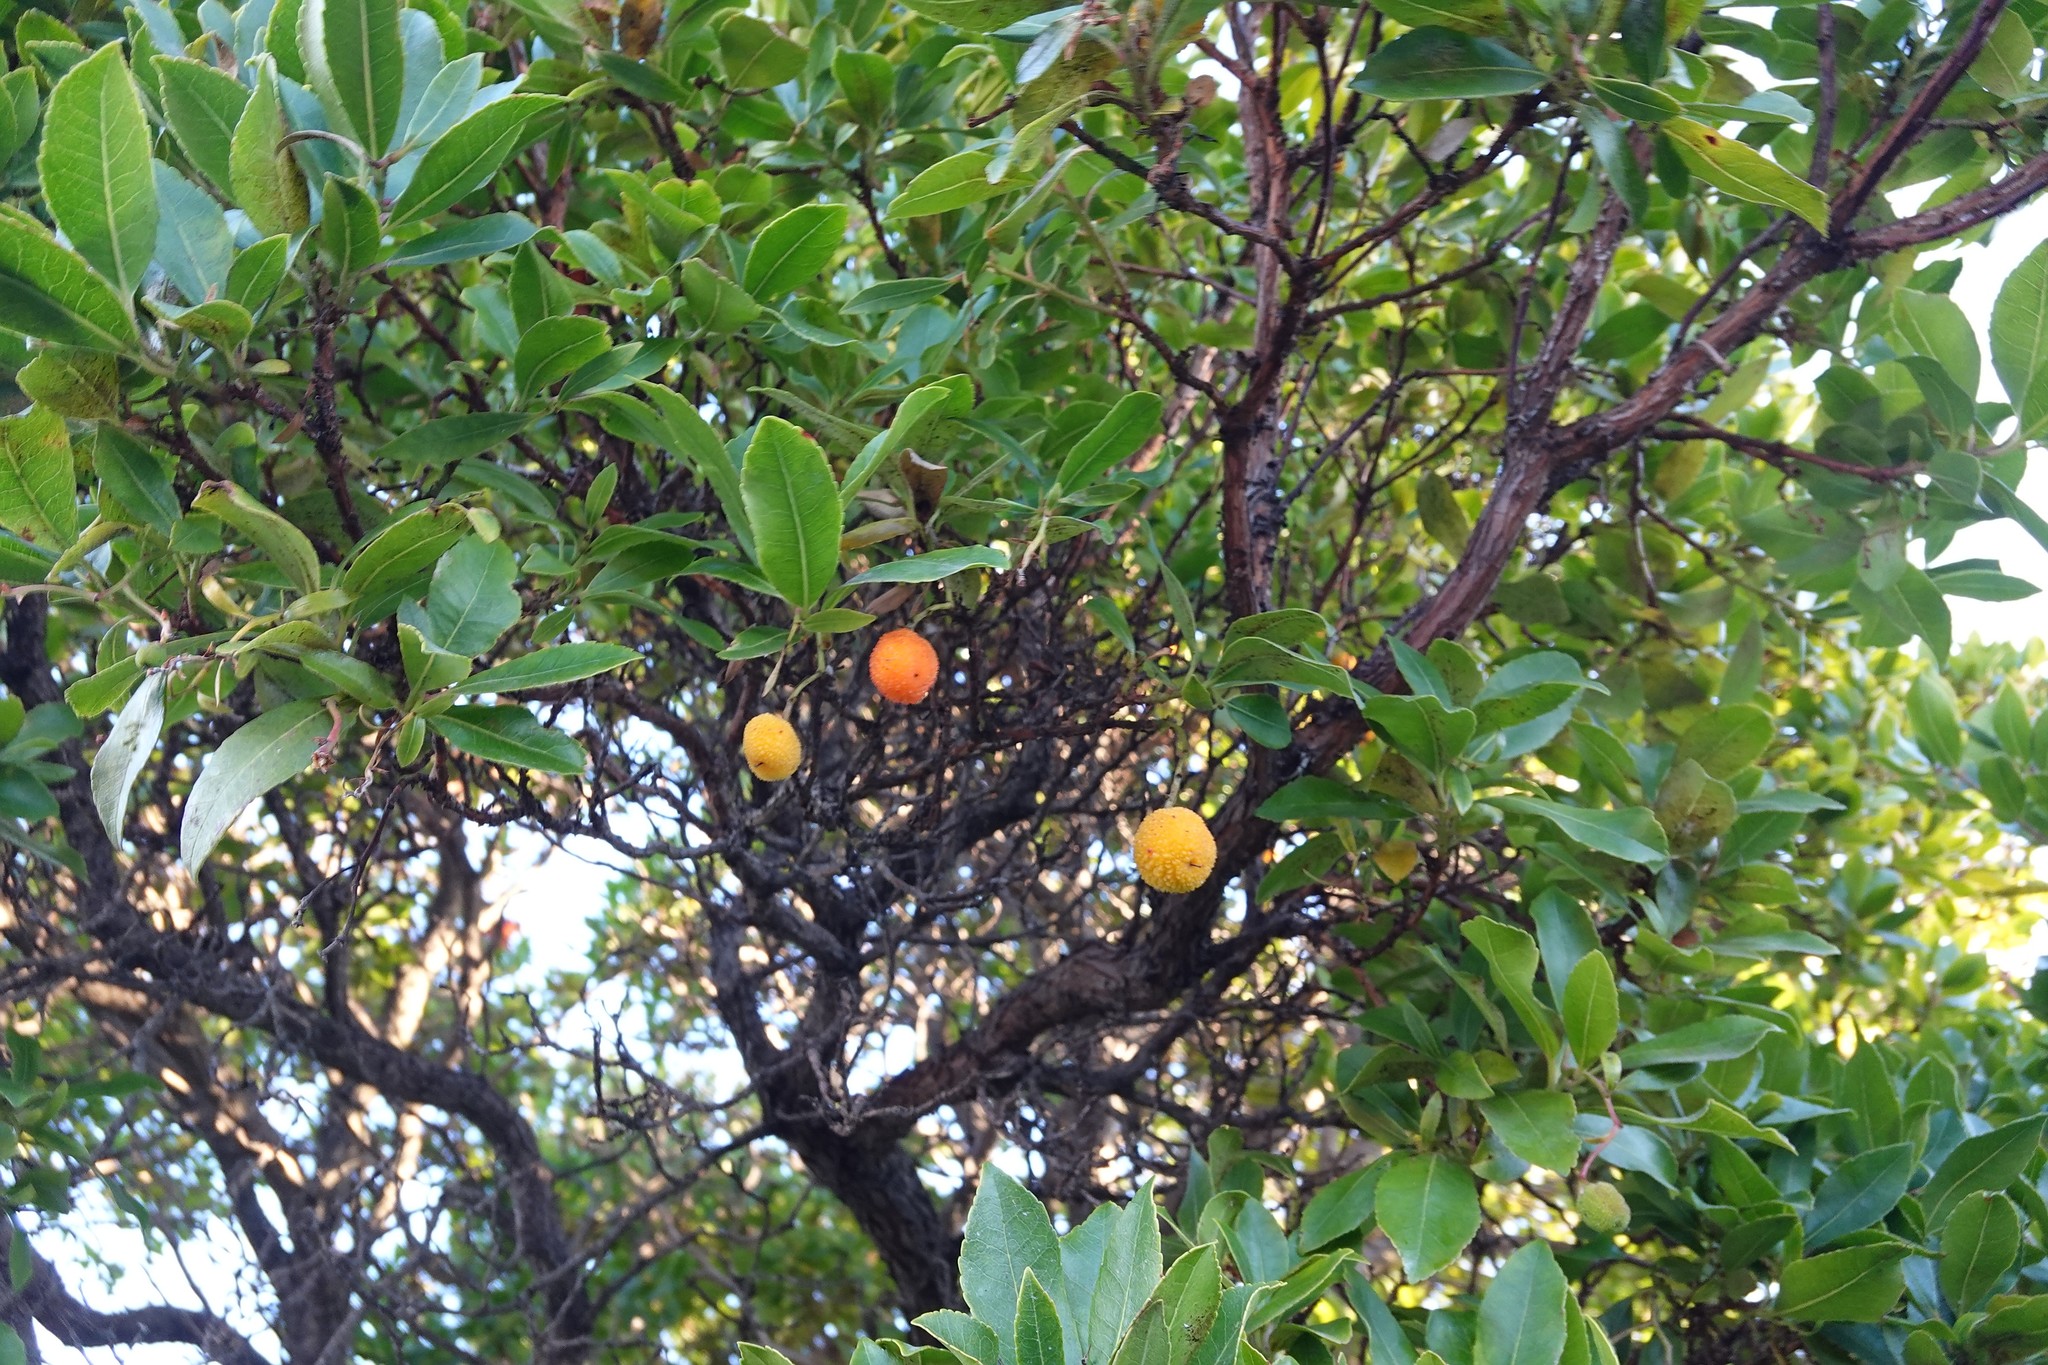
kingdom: Plantae
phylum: Tracheophyta
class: Magnoliopsida
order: Ericales
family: Ericaceae
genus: Arbutus
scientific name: Arbutus unedo
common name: Strawberry-tree
